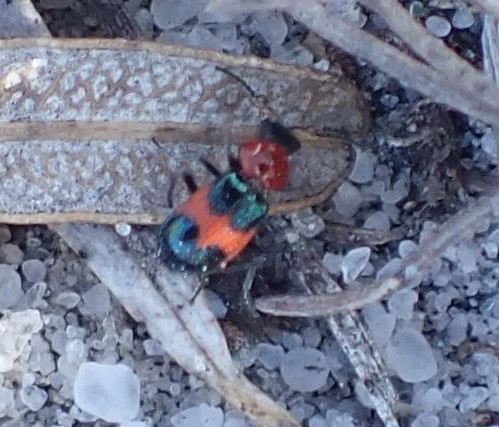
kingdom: Animalia
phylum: Arthropoda
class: Insecta
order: Coleoptera
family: Melyridae
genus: Dicranolaius
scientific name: Dicranolaius
